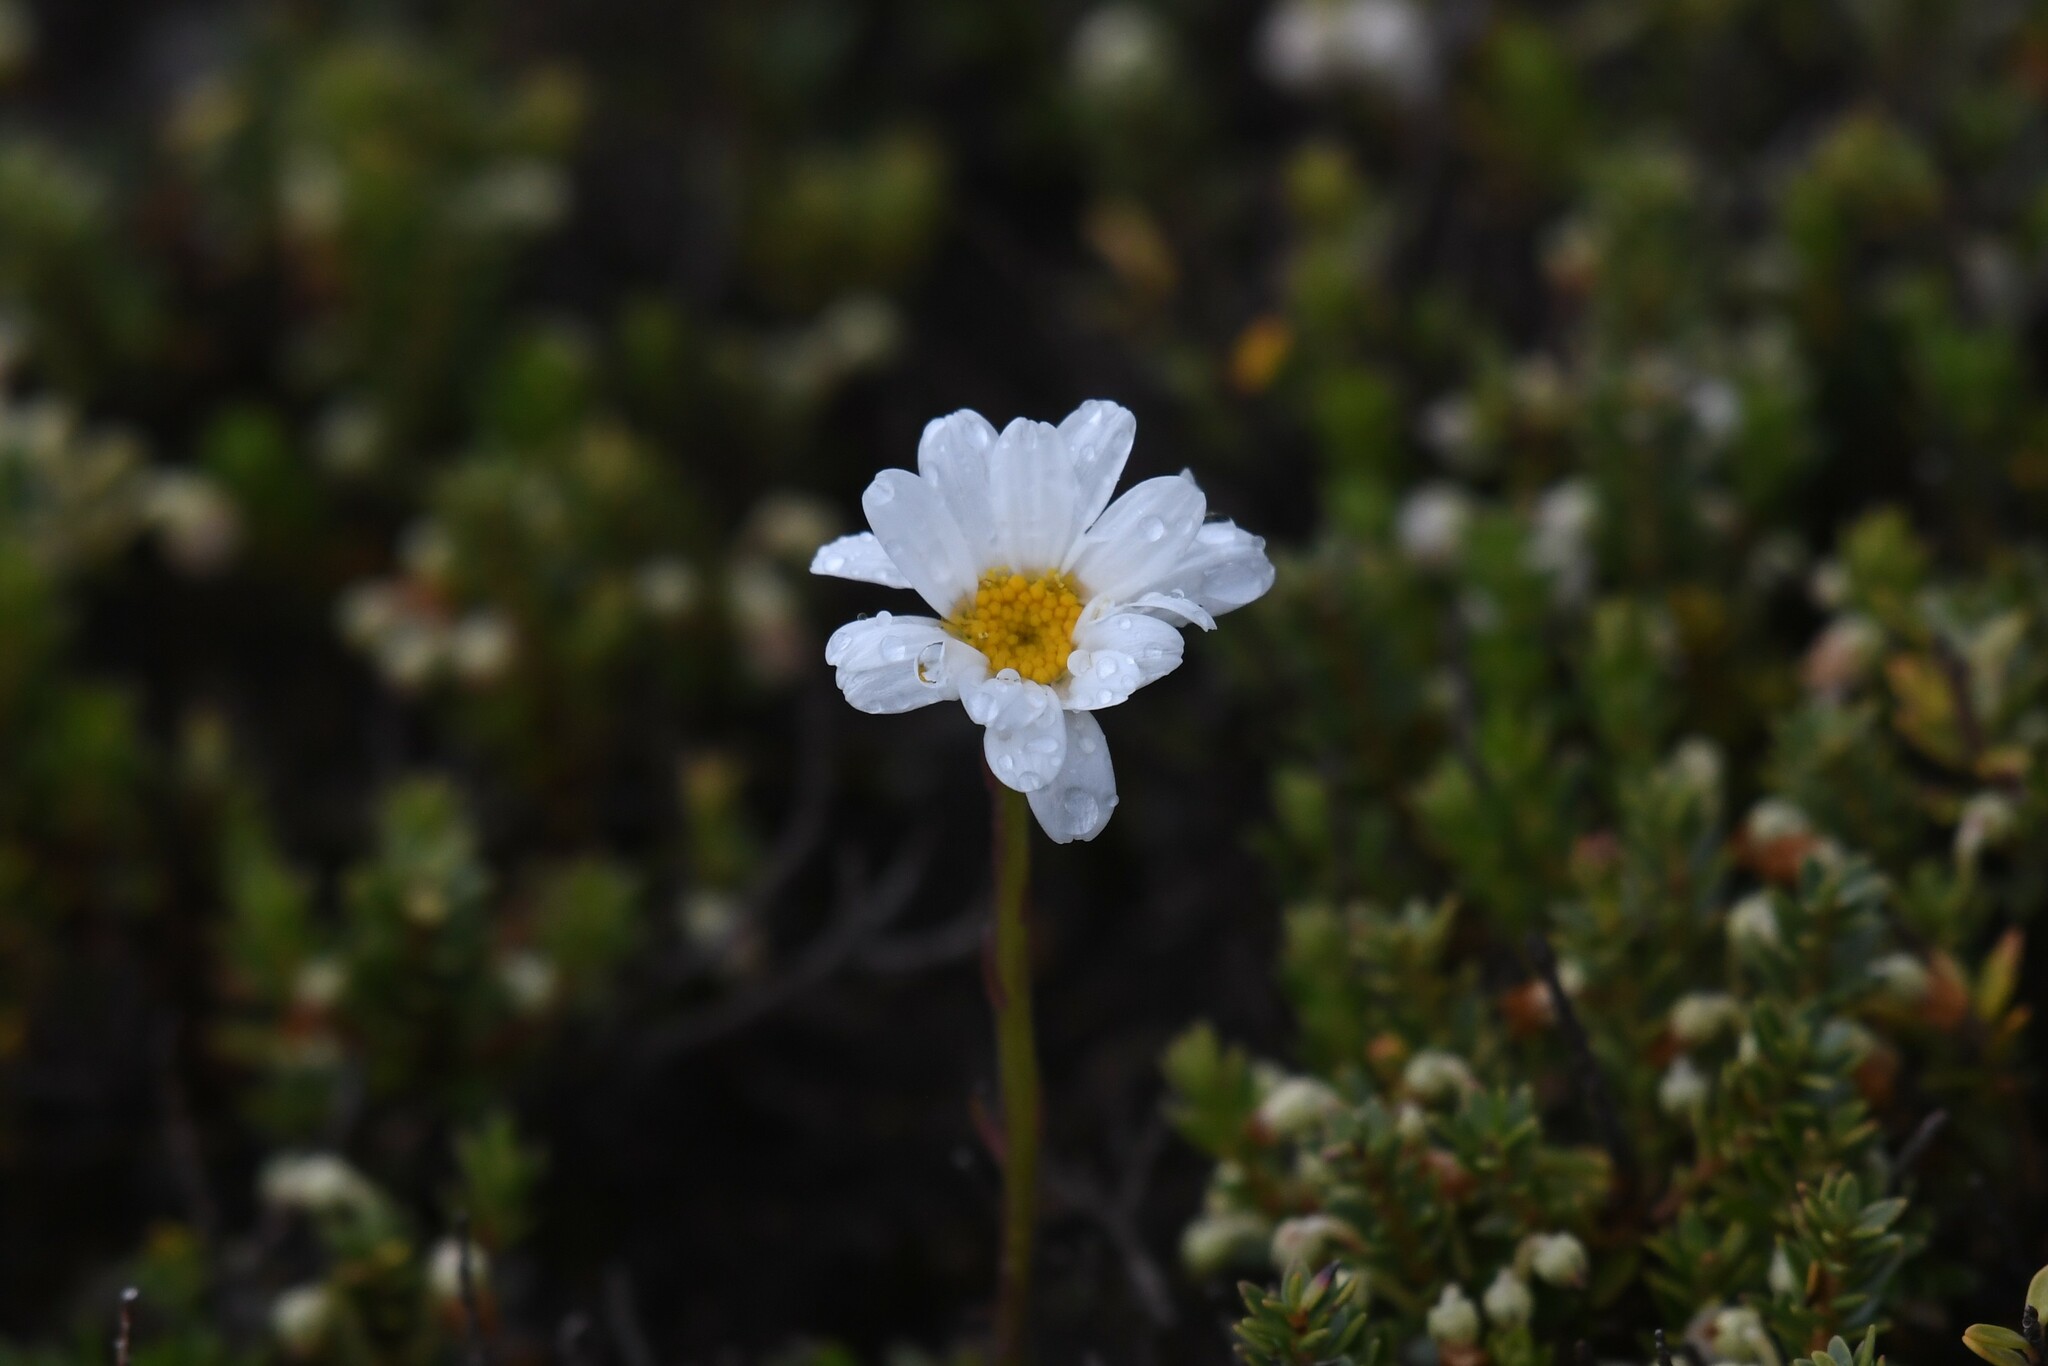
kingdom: Plantae
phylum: Tracheophyta
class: Magnoliopsida
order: Asterales
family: Asteraceae
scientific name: Asteraceae
